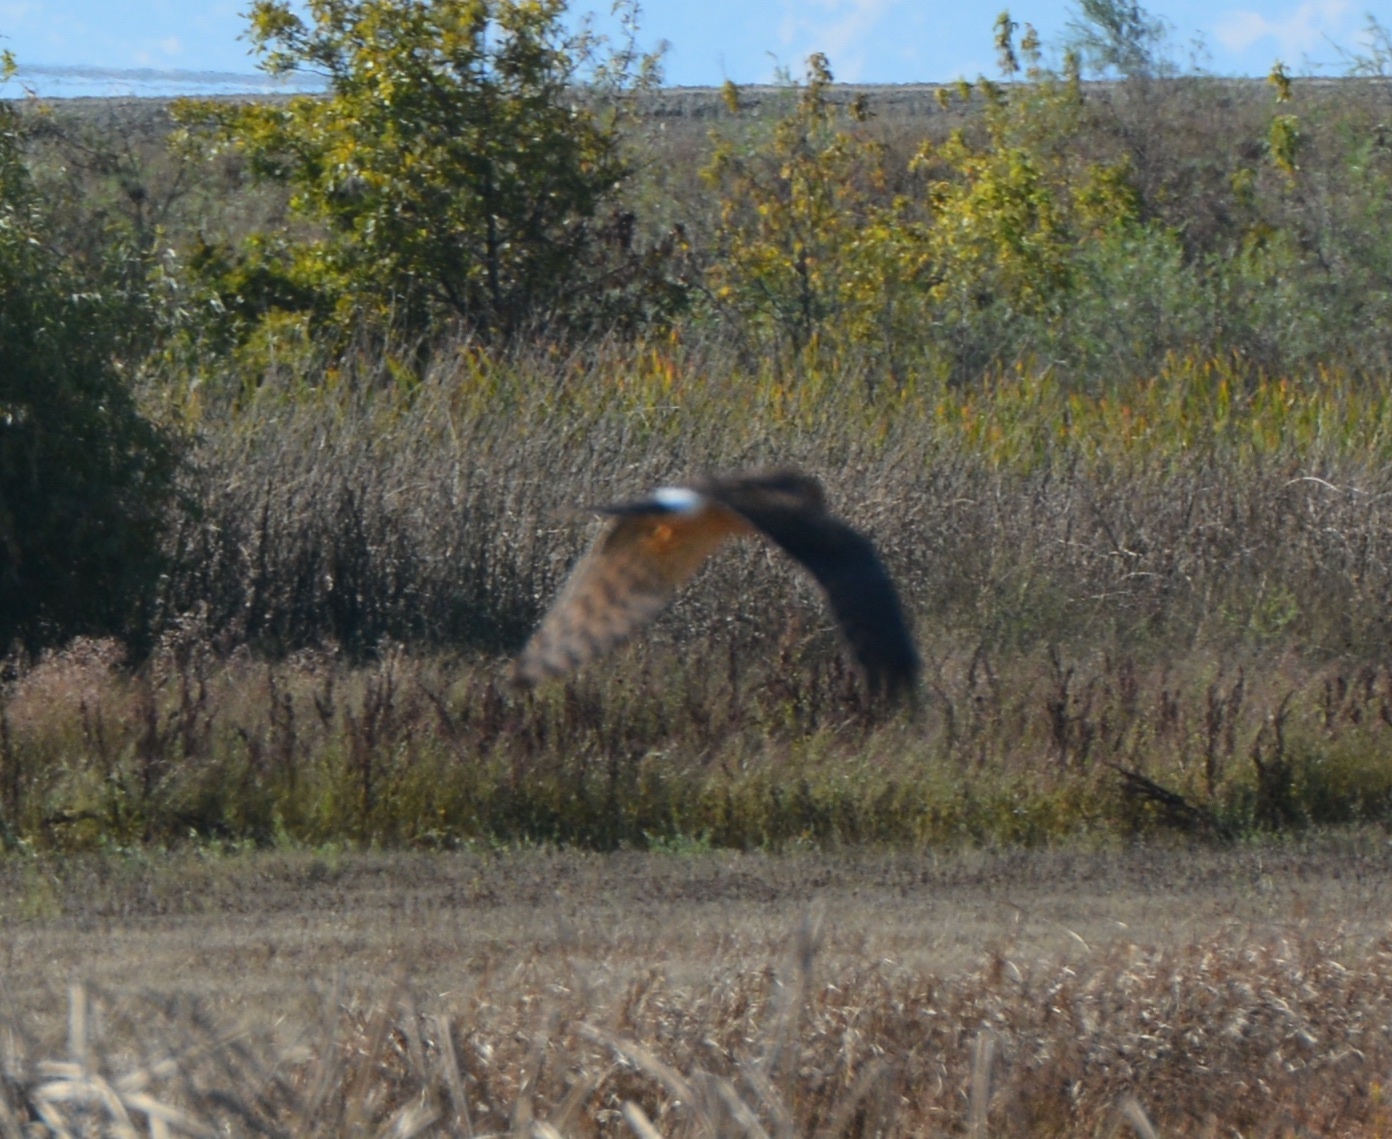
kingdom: Animalia
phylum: Chordata
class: Aves
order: Accipitriformes
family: Accipitridae
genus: Circus
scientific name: Circus cyaneus
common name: Hen harrier
